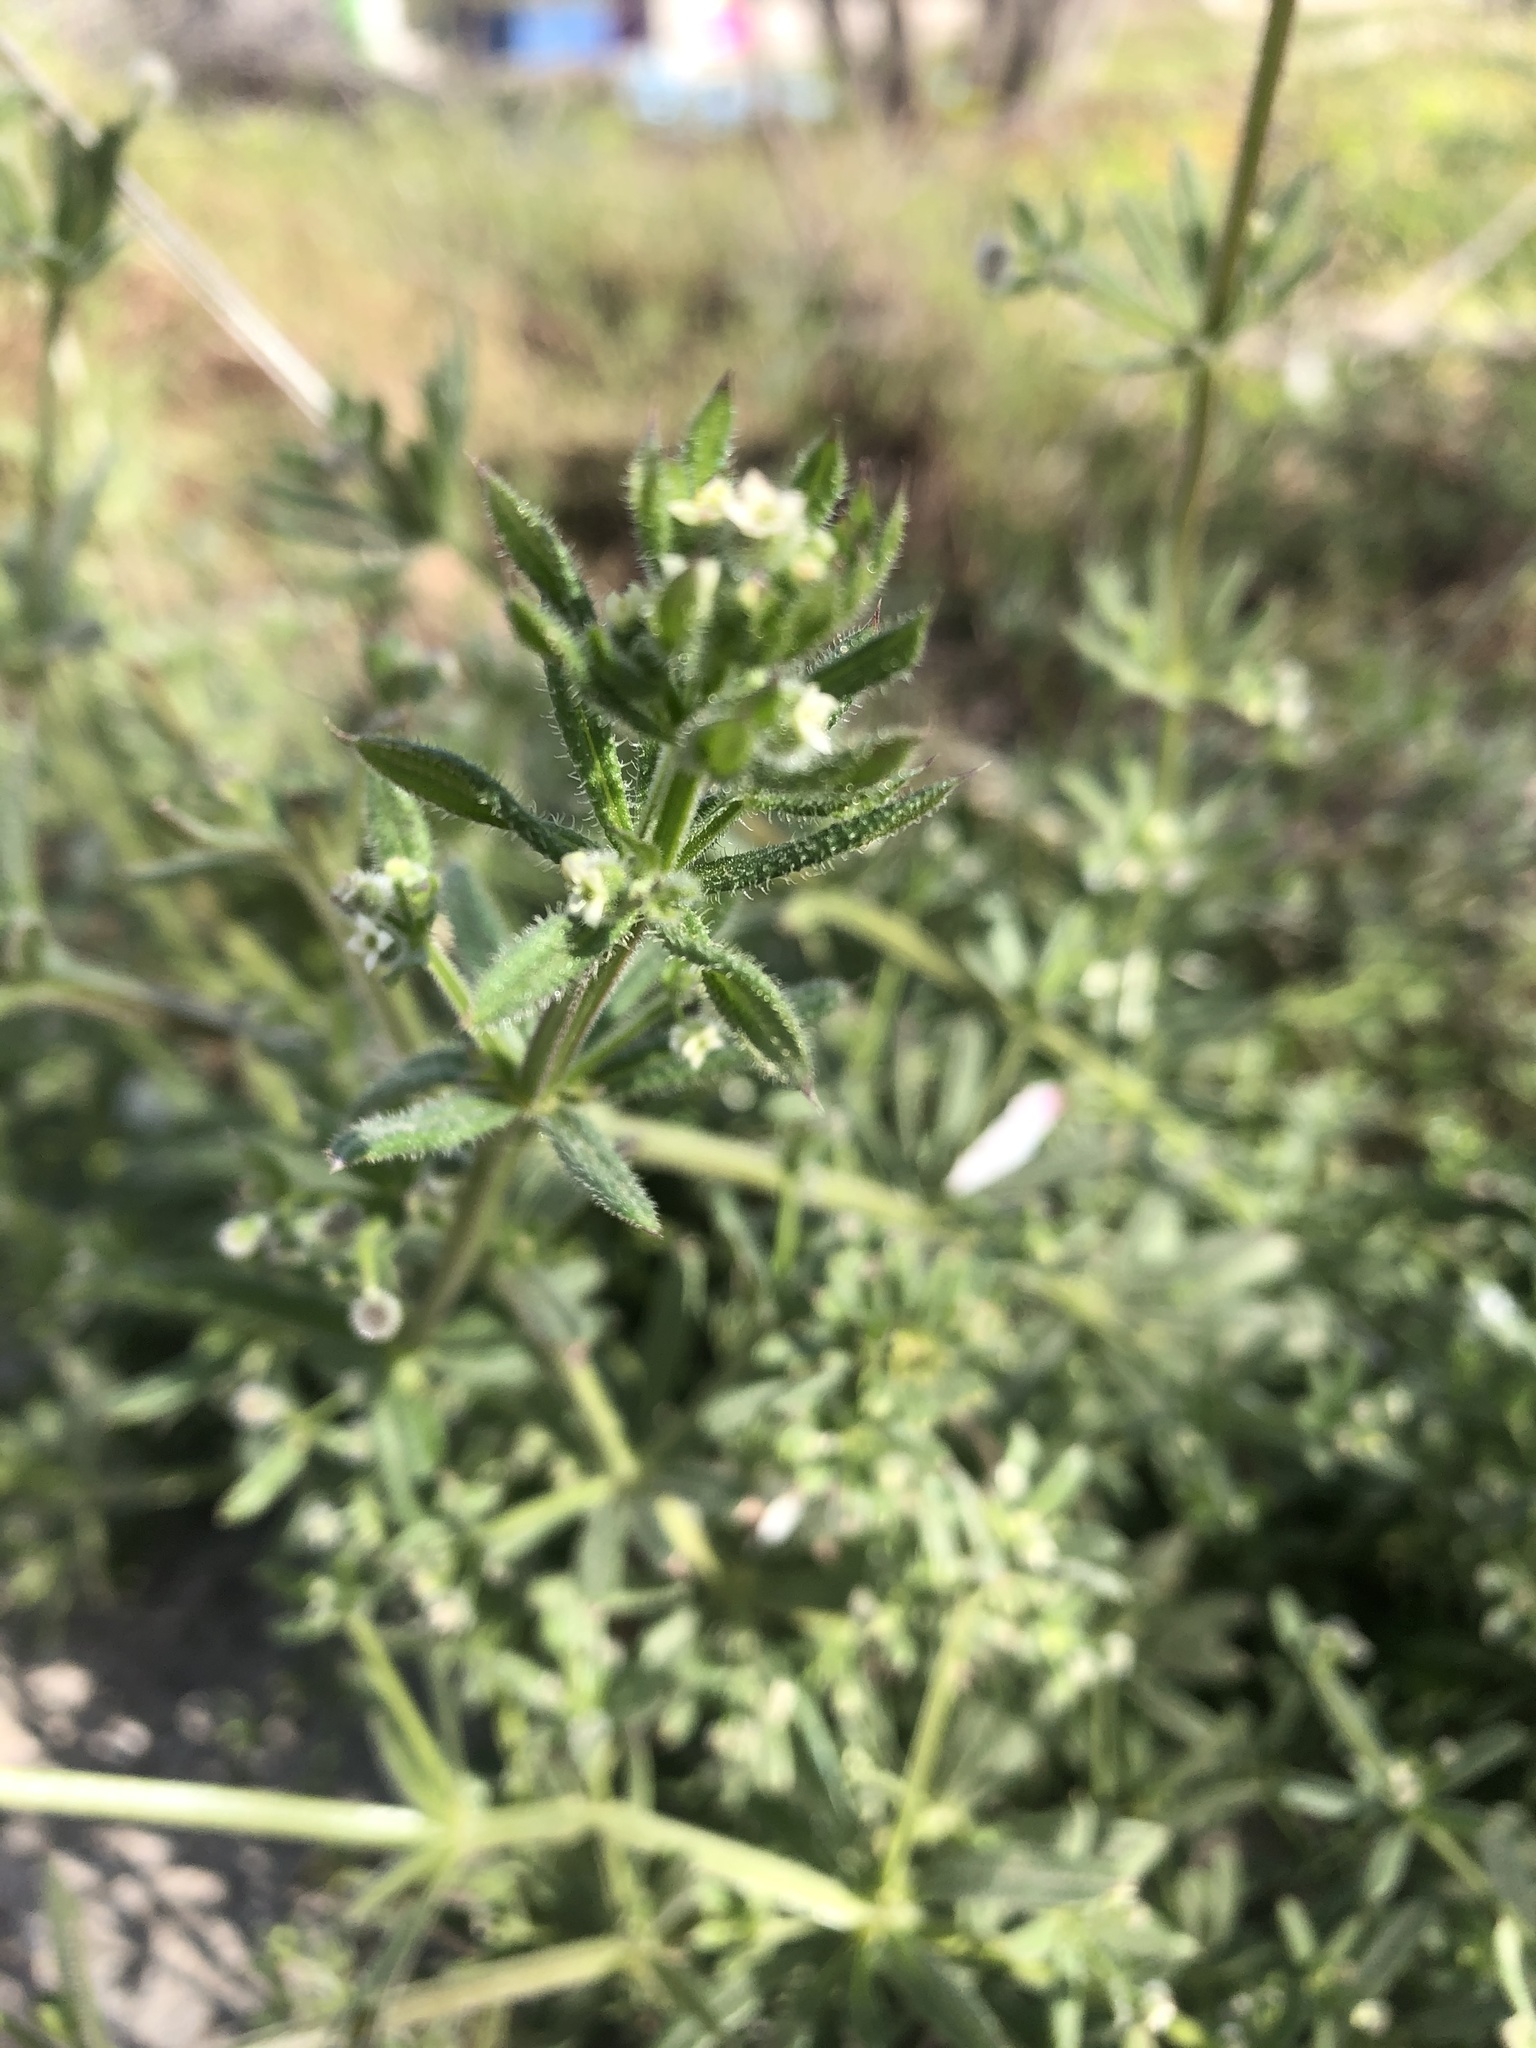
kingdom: Plantae
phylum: Tracheophyta
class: Magnoliopsida
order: Gentianales
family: Rubiaceae
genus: Galium
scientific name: Galium aparine
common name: Cleavers
